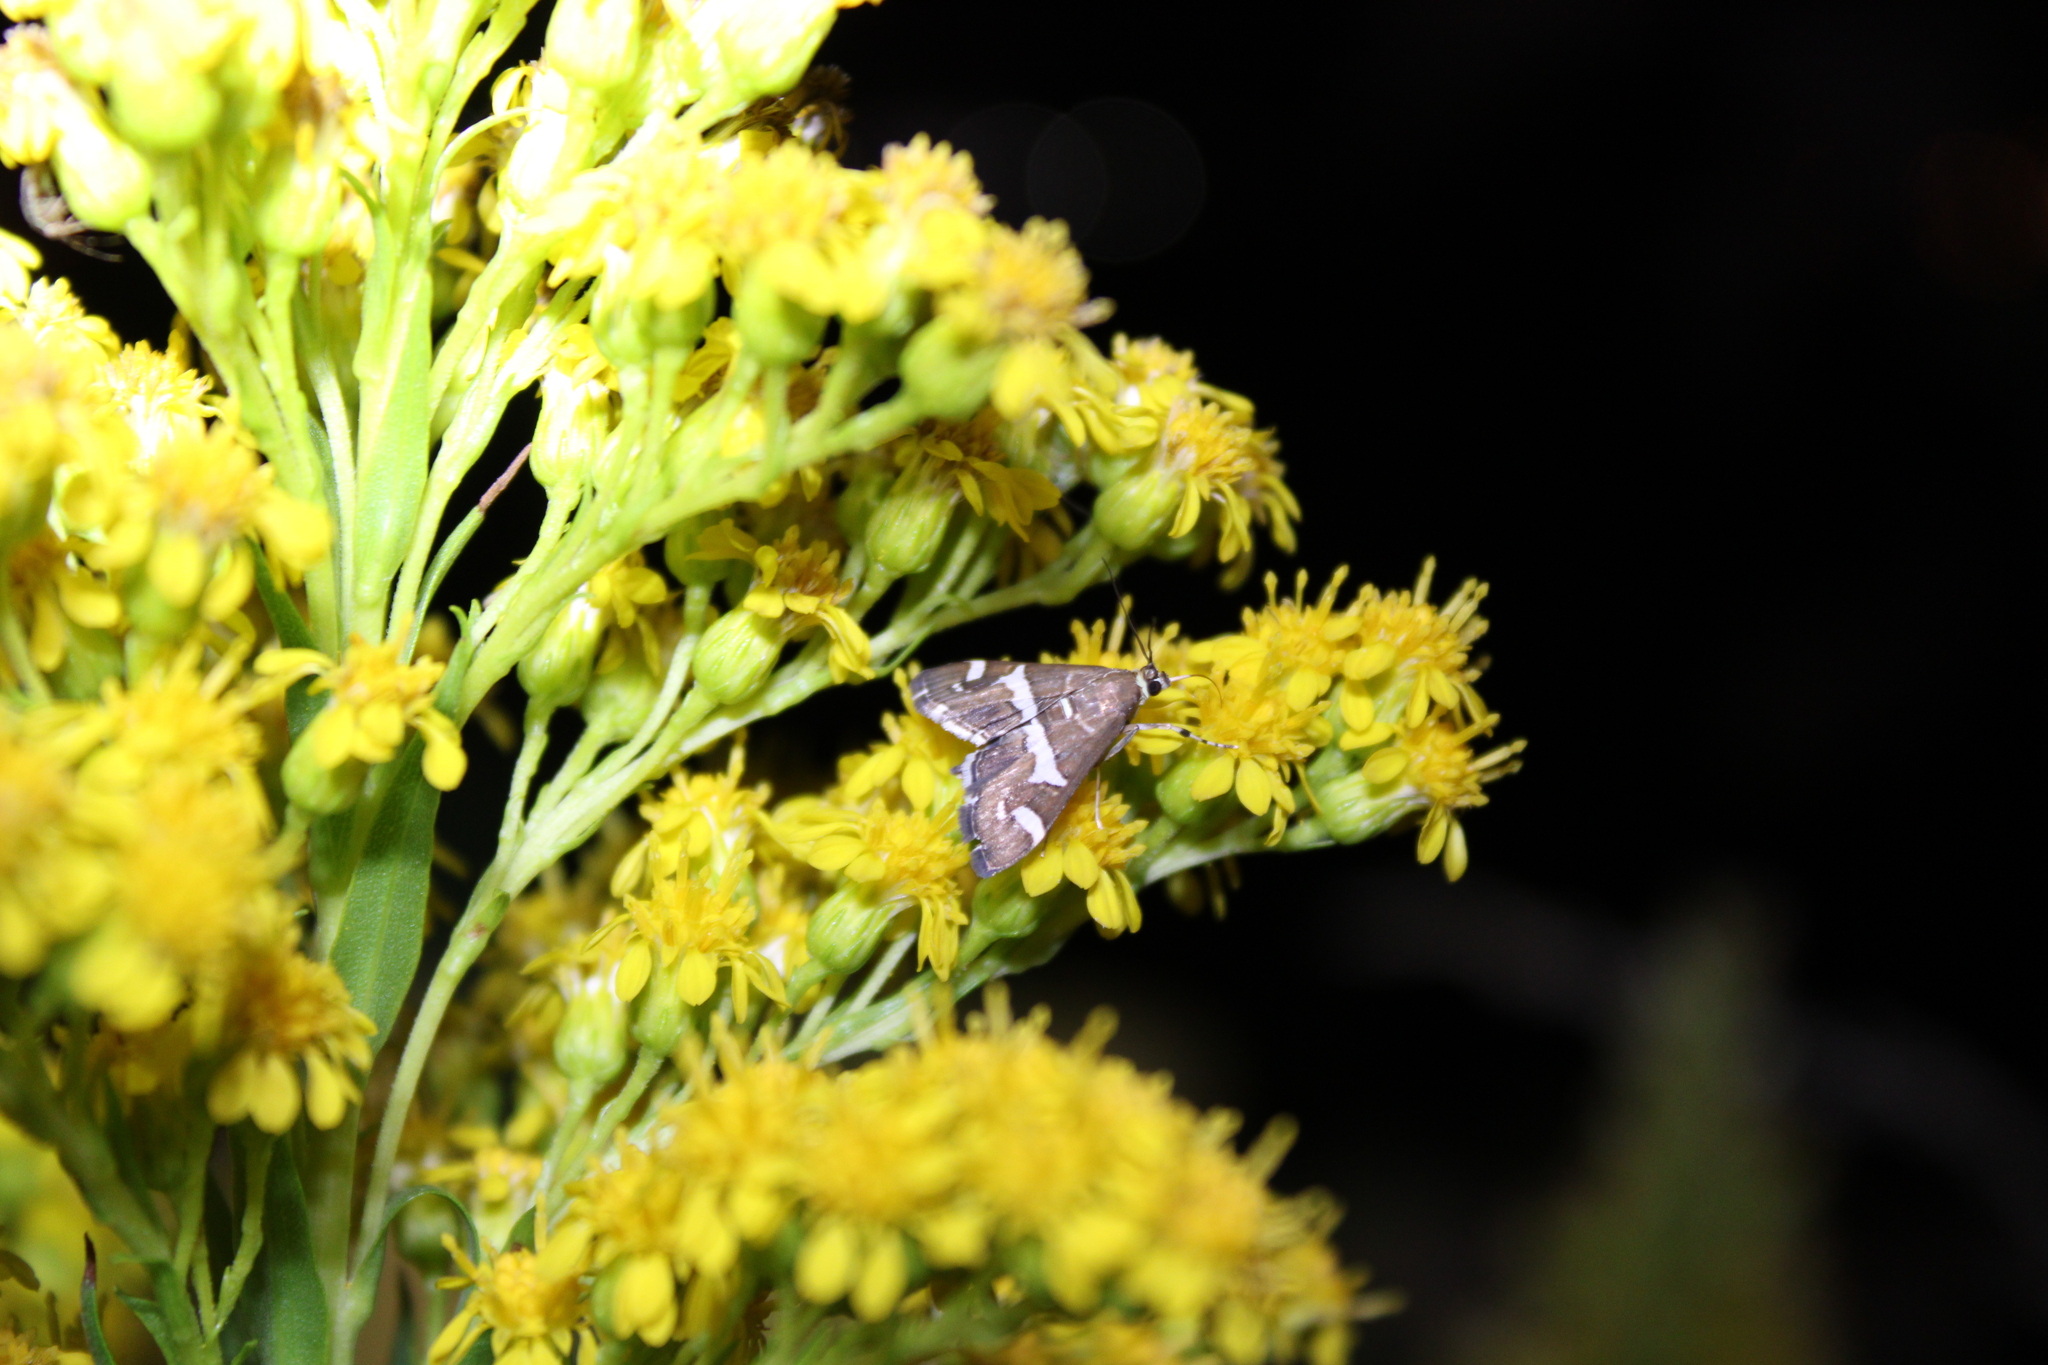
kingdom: Animalia
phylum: Arthropoda
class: Insecta
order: Lepidoptera
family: Crambidae
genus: Spoladea
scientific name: Spoladea recurvalis
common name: Beet webworm moth
